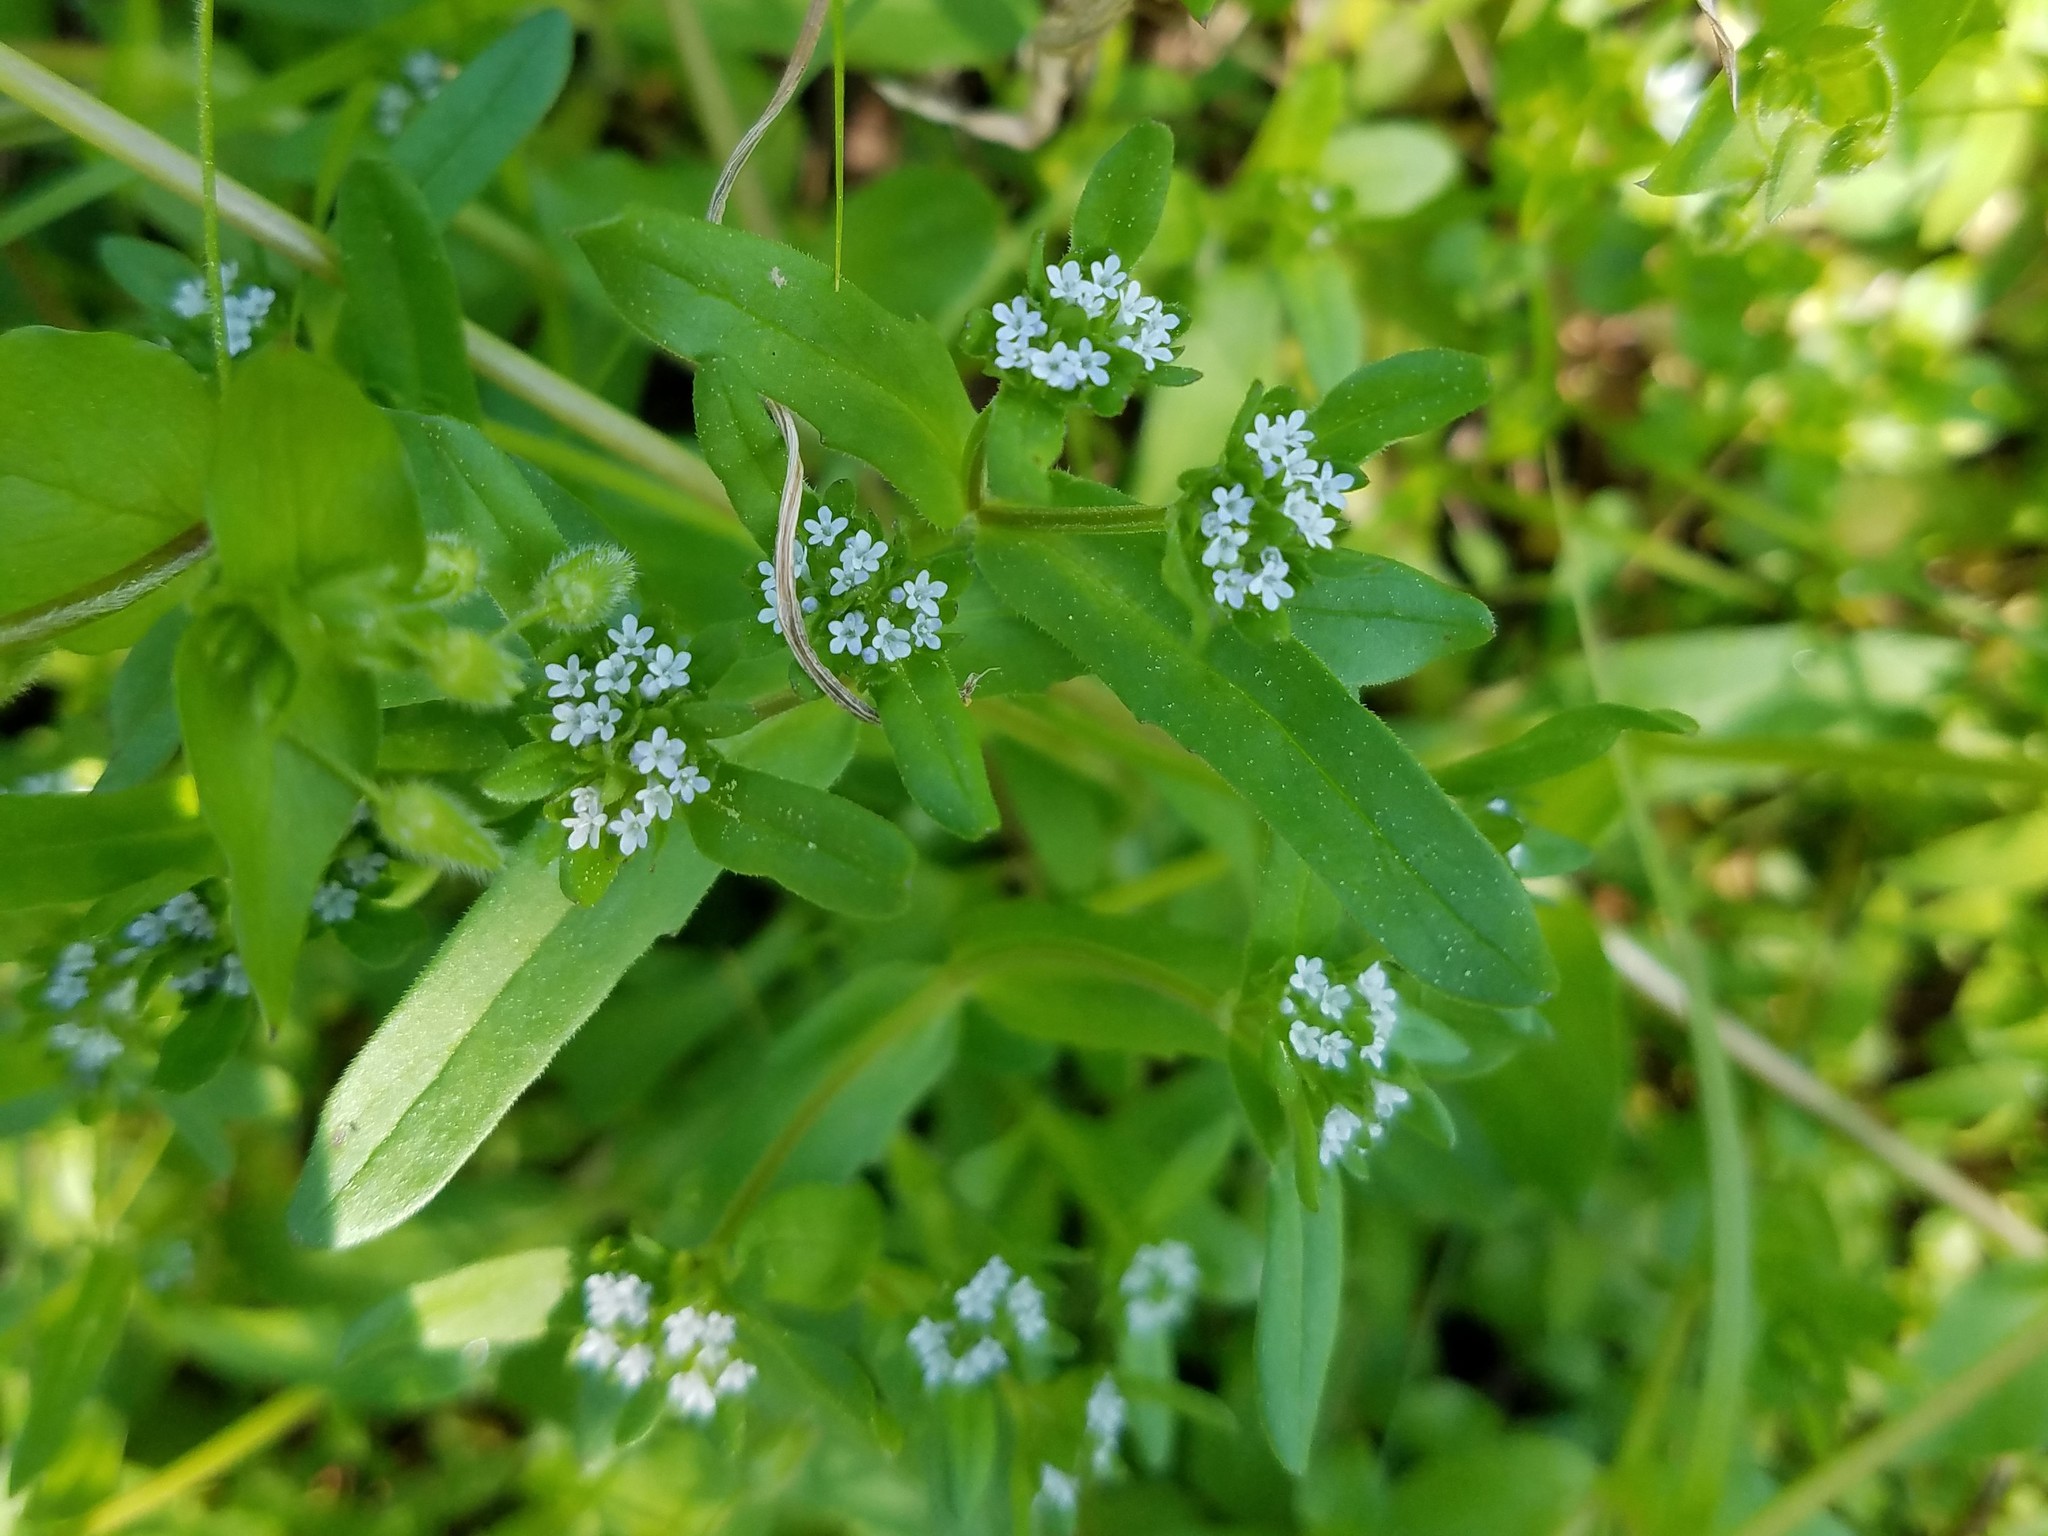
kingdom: Plantae
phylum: Tracheophyta
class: Magnoliopsida
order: Dipsacales
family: Caprifoliaceae
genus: Valerianella
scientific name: Valerianella locusta
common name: Common cornsalad
